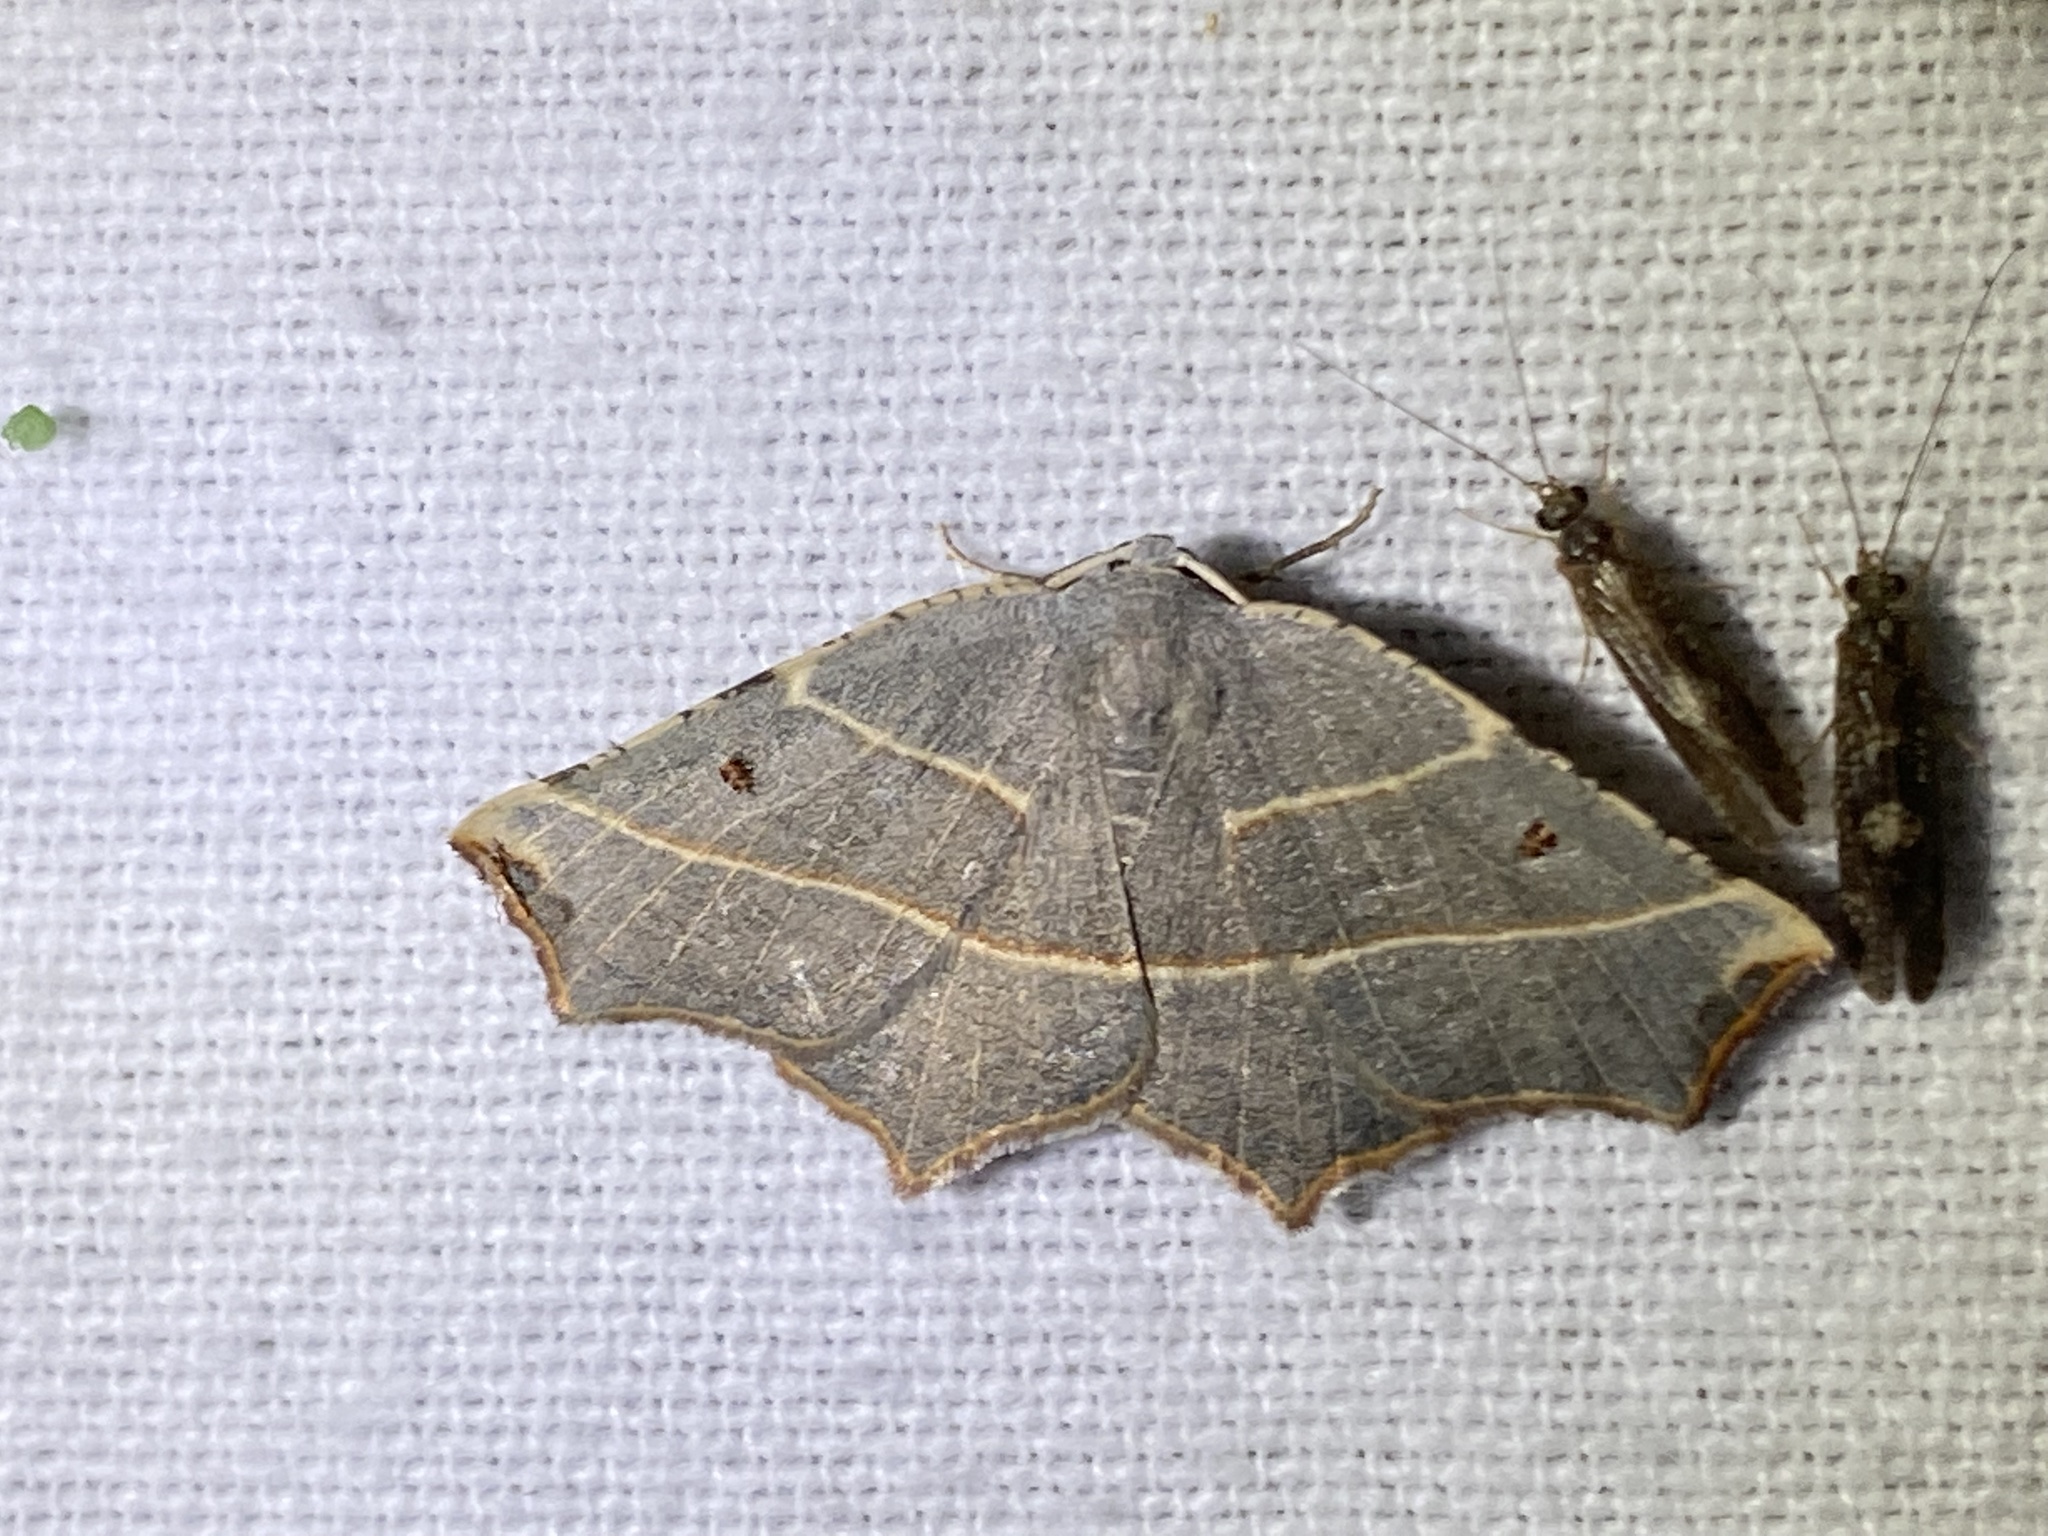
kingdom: Animalia
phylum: Arthropoda
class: Insecta
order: Lepidoptera
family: Geometridae
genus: Metanema
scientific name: Metanema inatomaria
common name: Pale metanema
